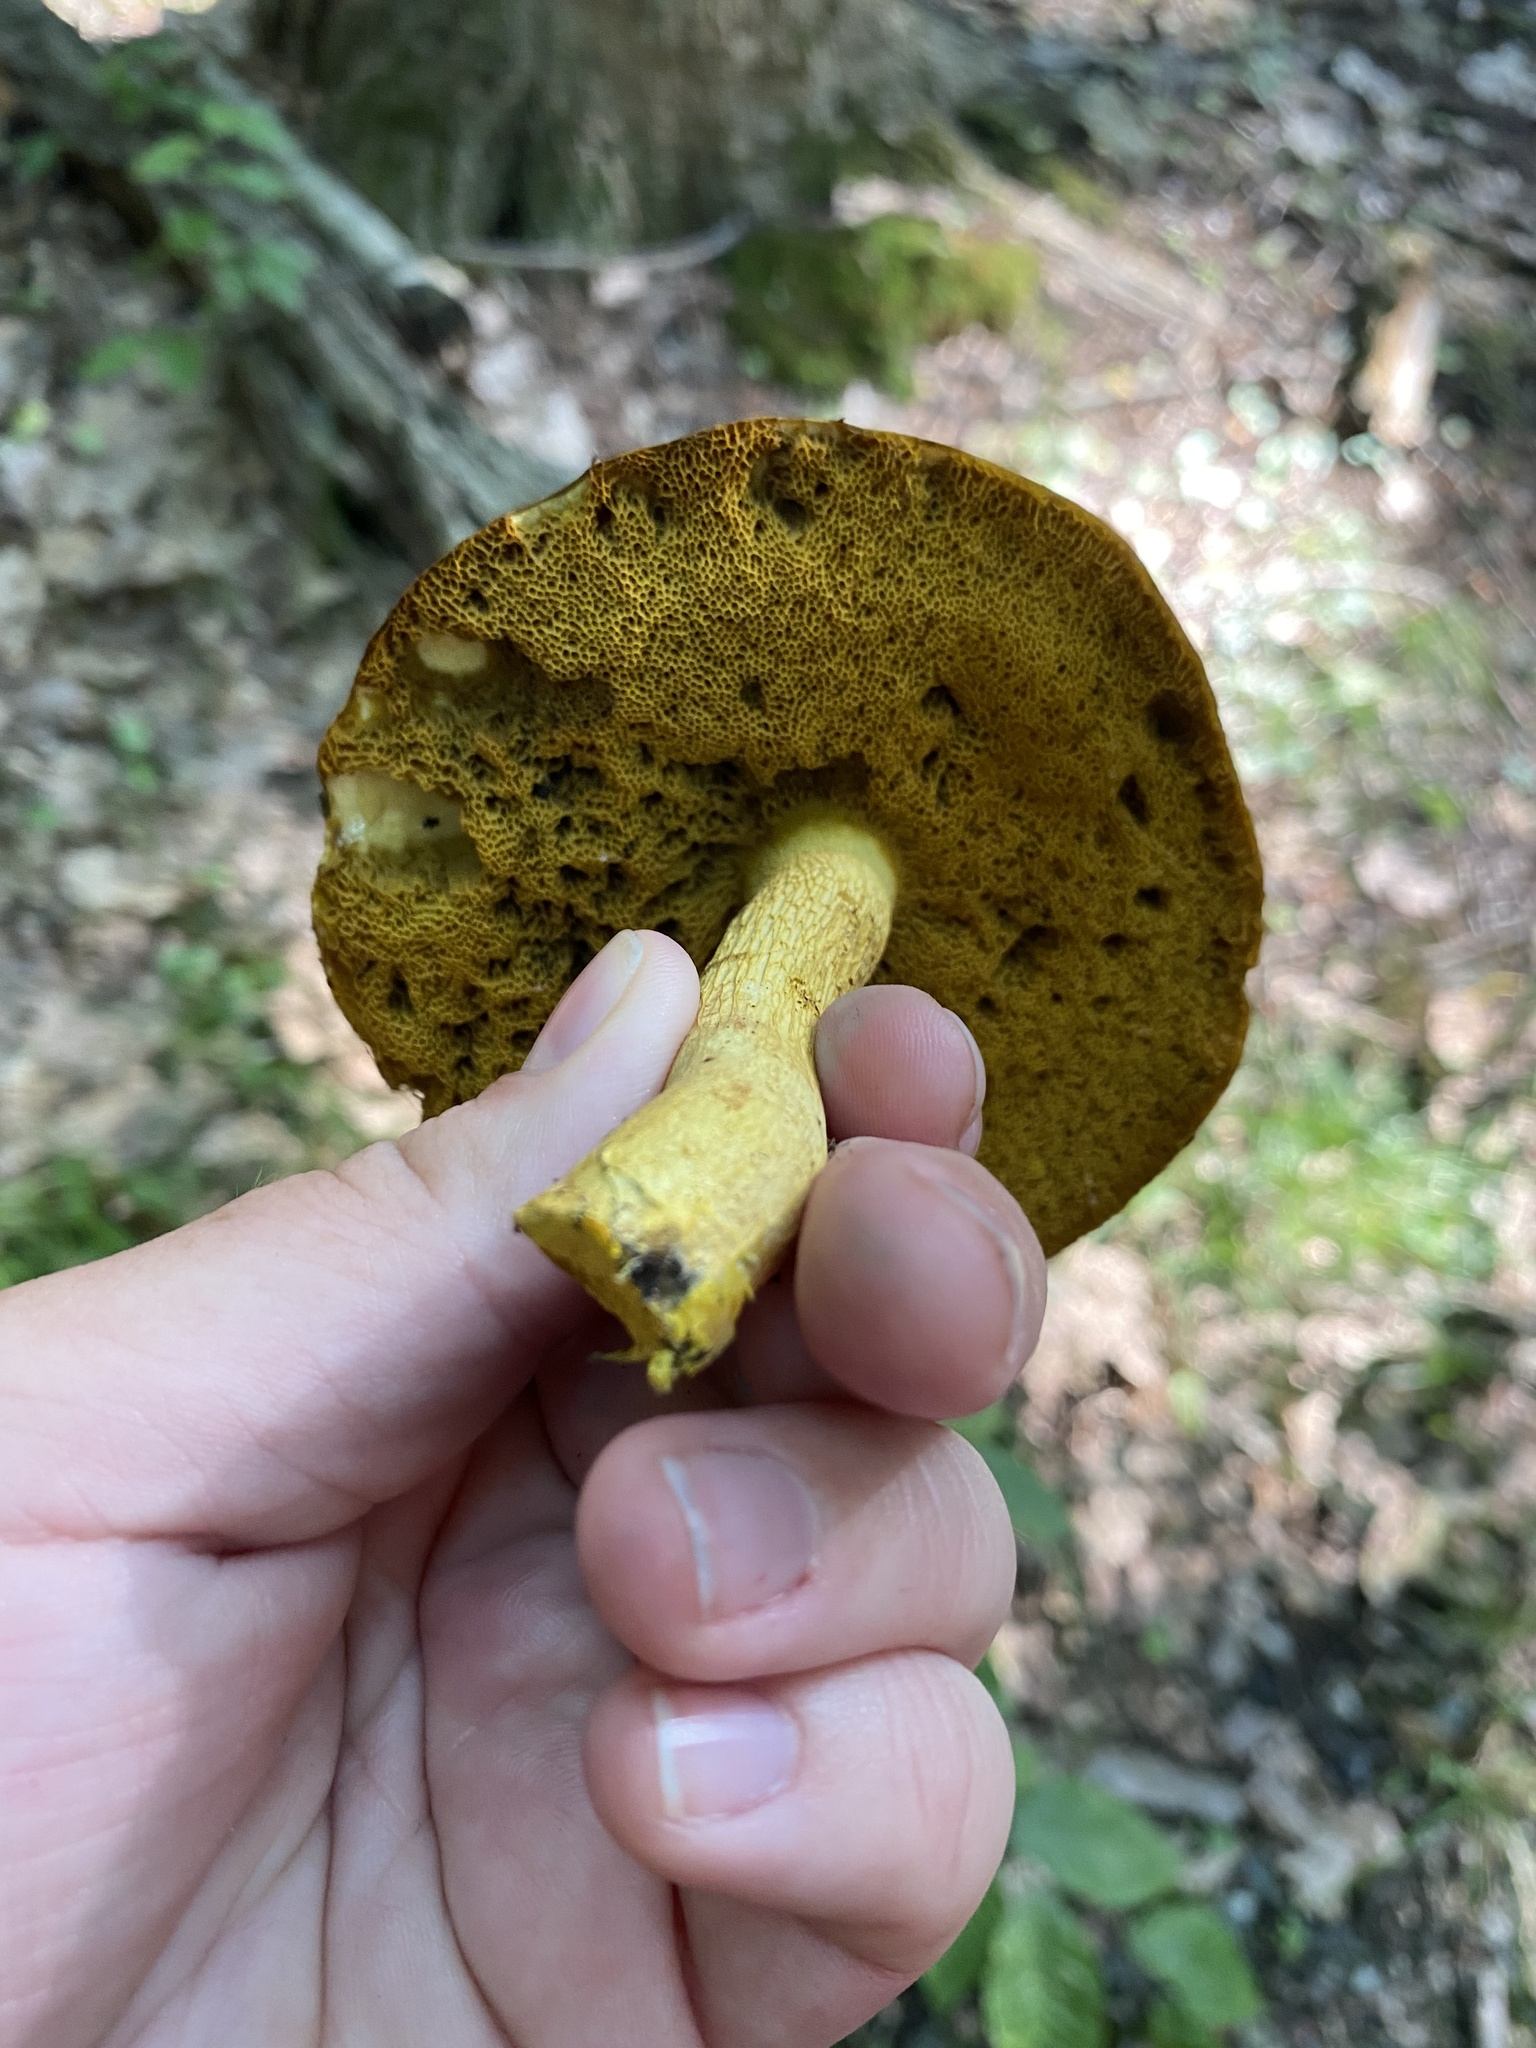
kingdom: Fungi
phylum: Basidiomycota
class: Agaricomycetes
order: Boletales
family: Boletaceae
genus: Retiboletus
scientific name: Retiboletus ornatipes
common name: Ornate-stalked bolete
